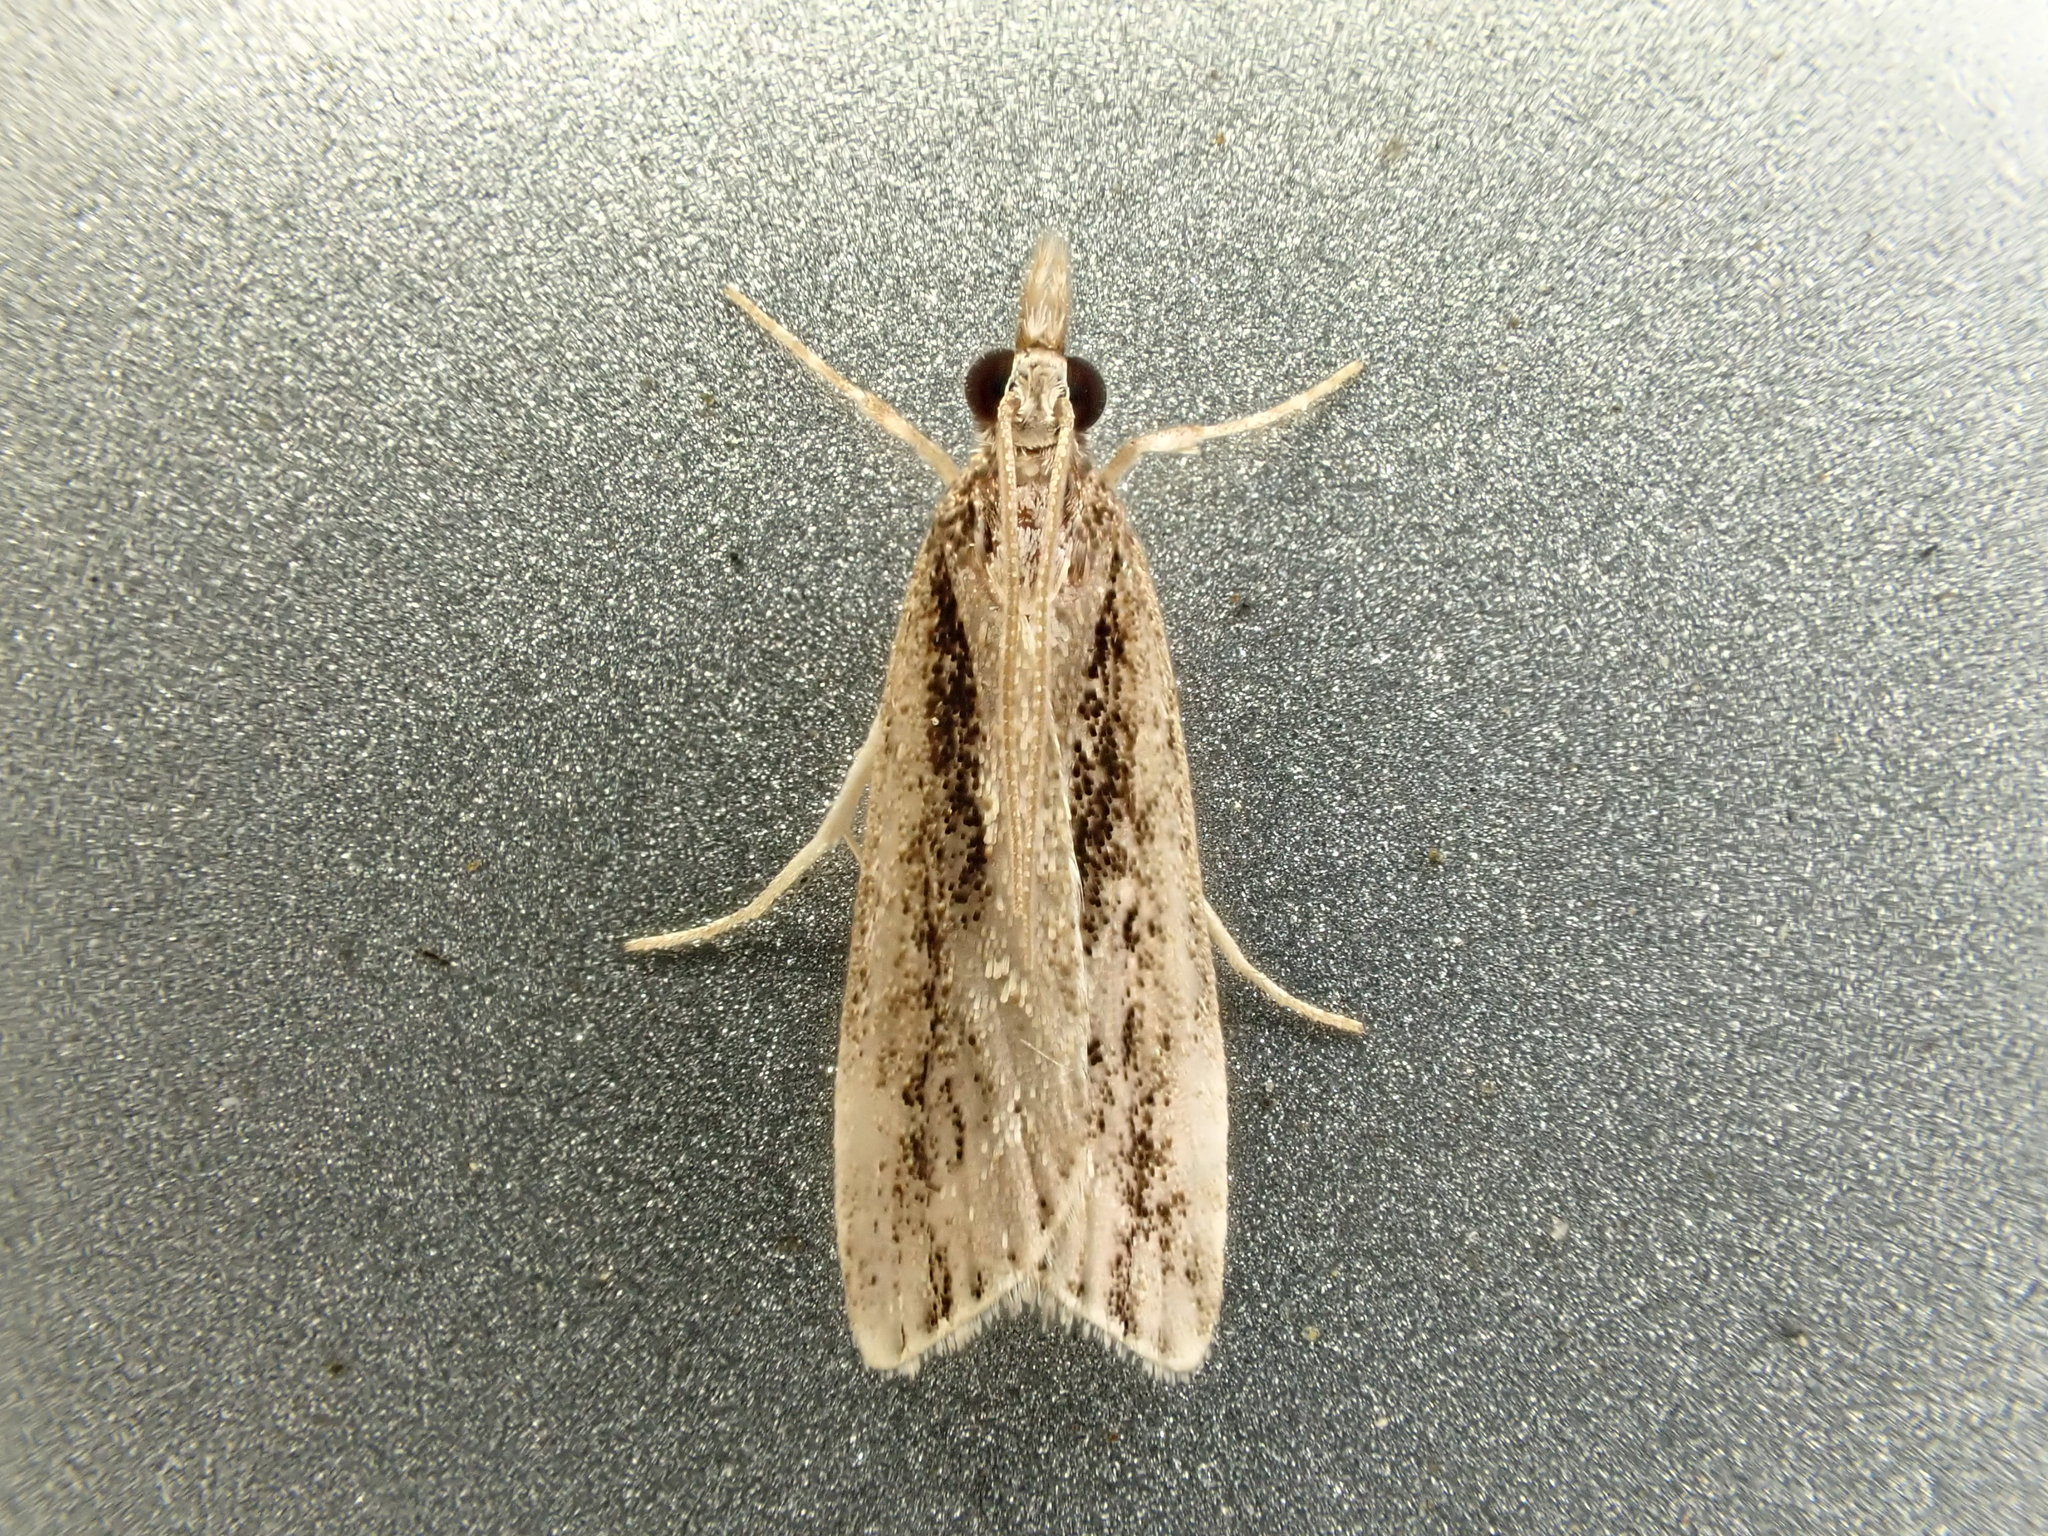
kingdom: Animalia
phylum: Arthropoda
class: Insecta
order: Lepidoptera
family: Crambidae
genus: Eudonia
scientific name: Eudonia steropaea
